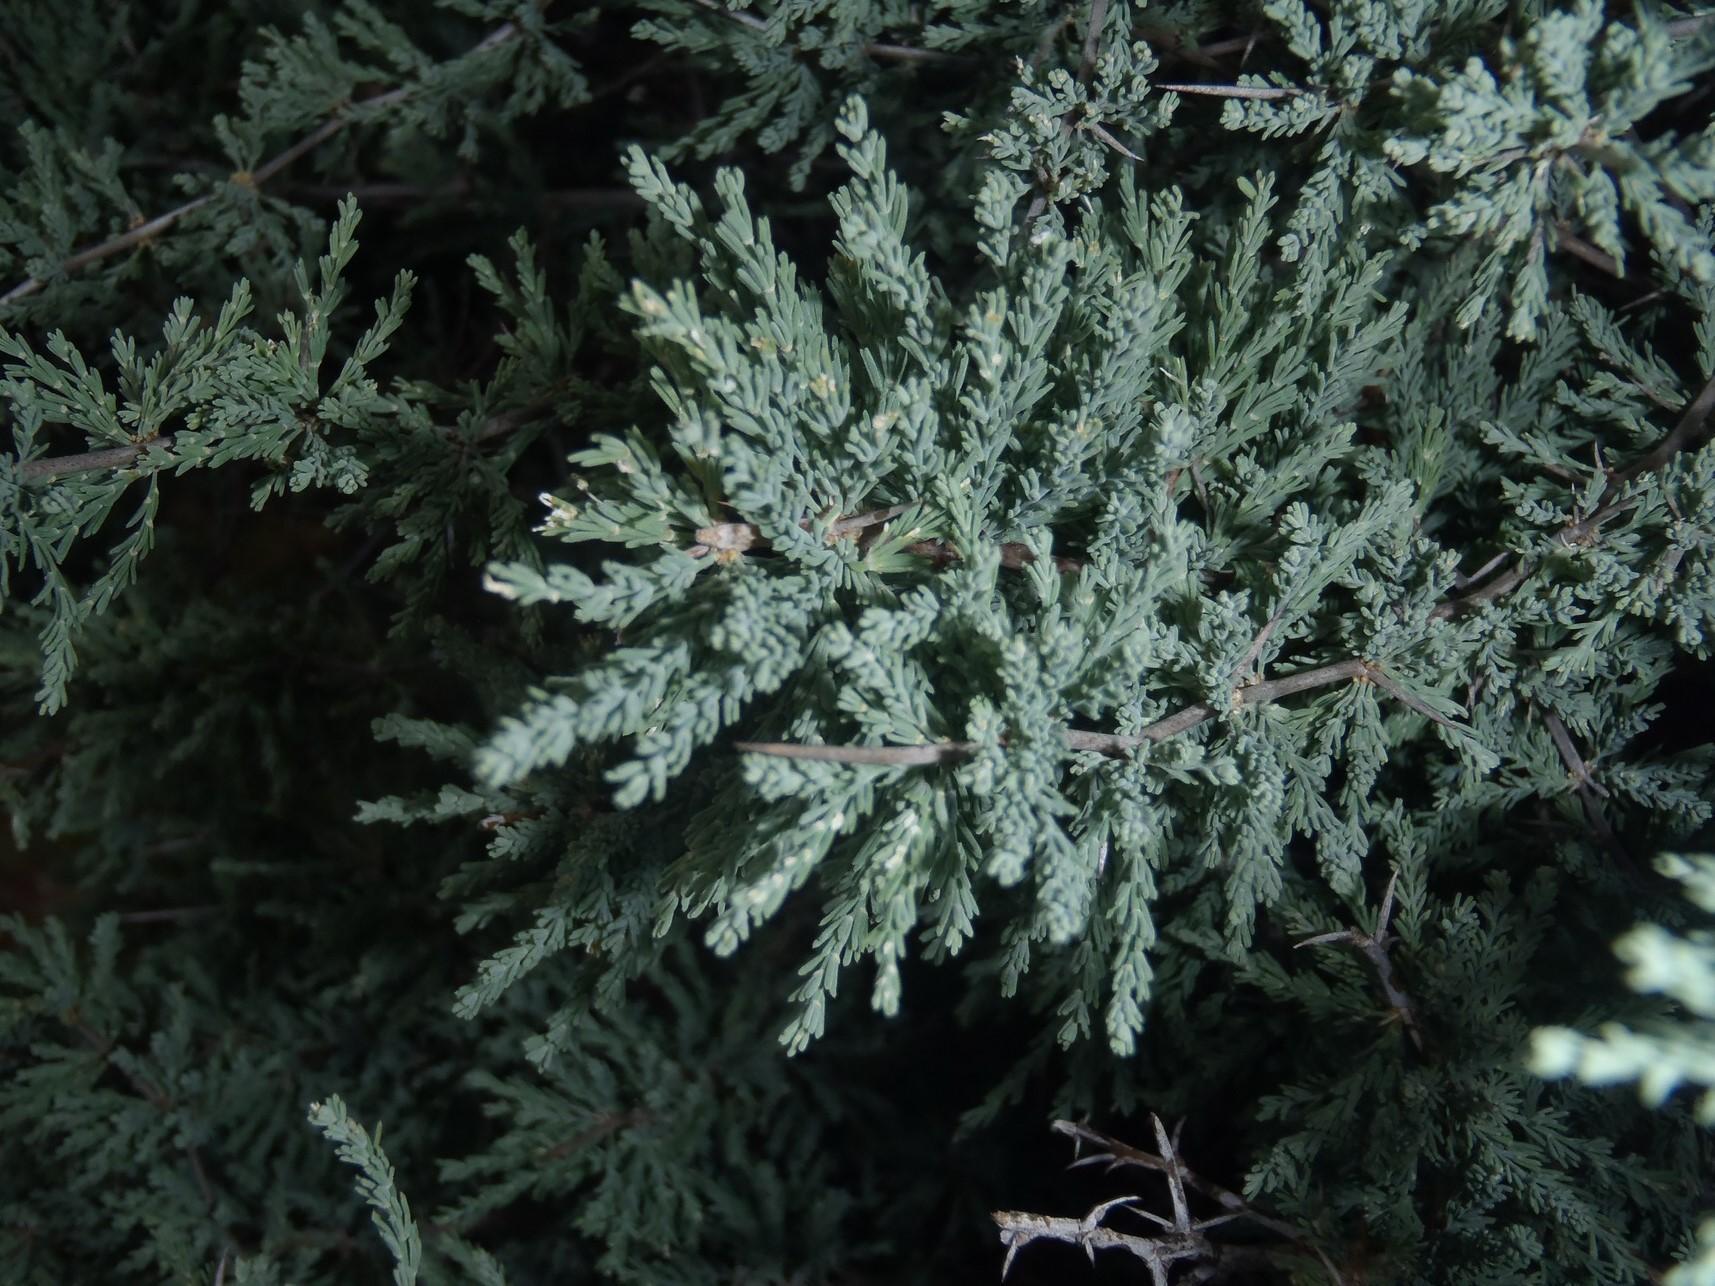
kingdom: Plantae
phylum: Tracheophyta
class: Liliopsida
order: Asparagales
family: Asparagaceae
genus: Asparagus
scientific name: Asparagus capensis
